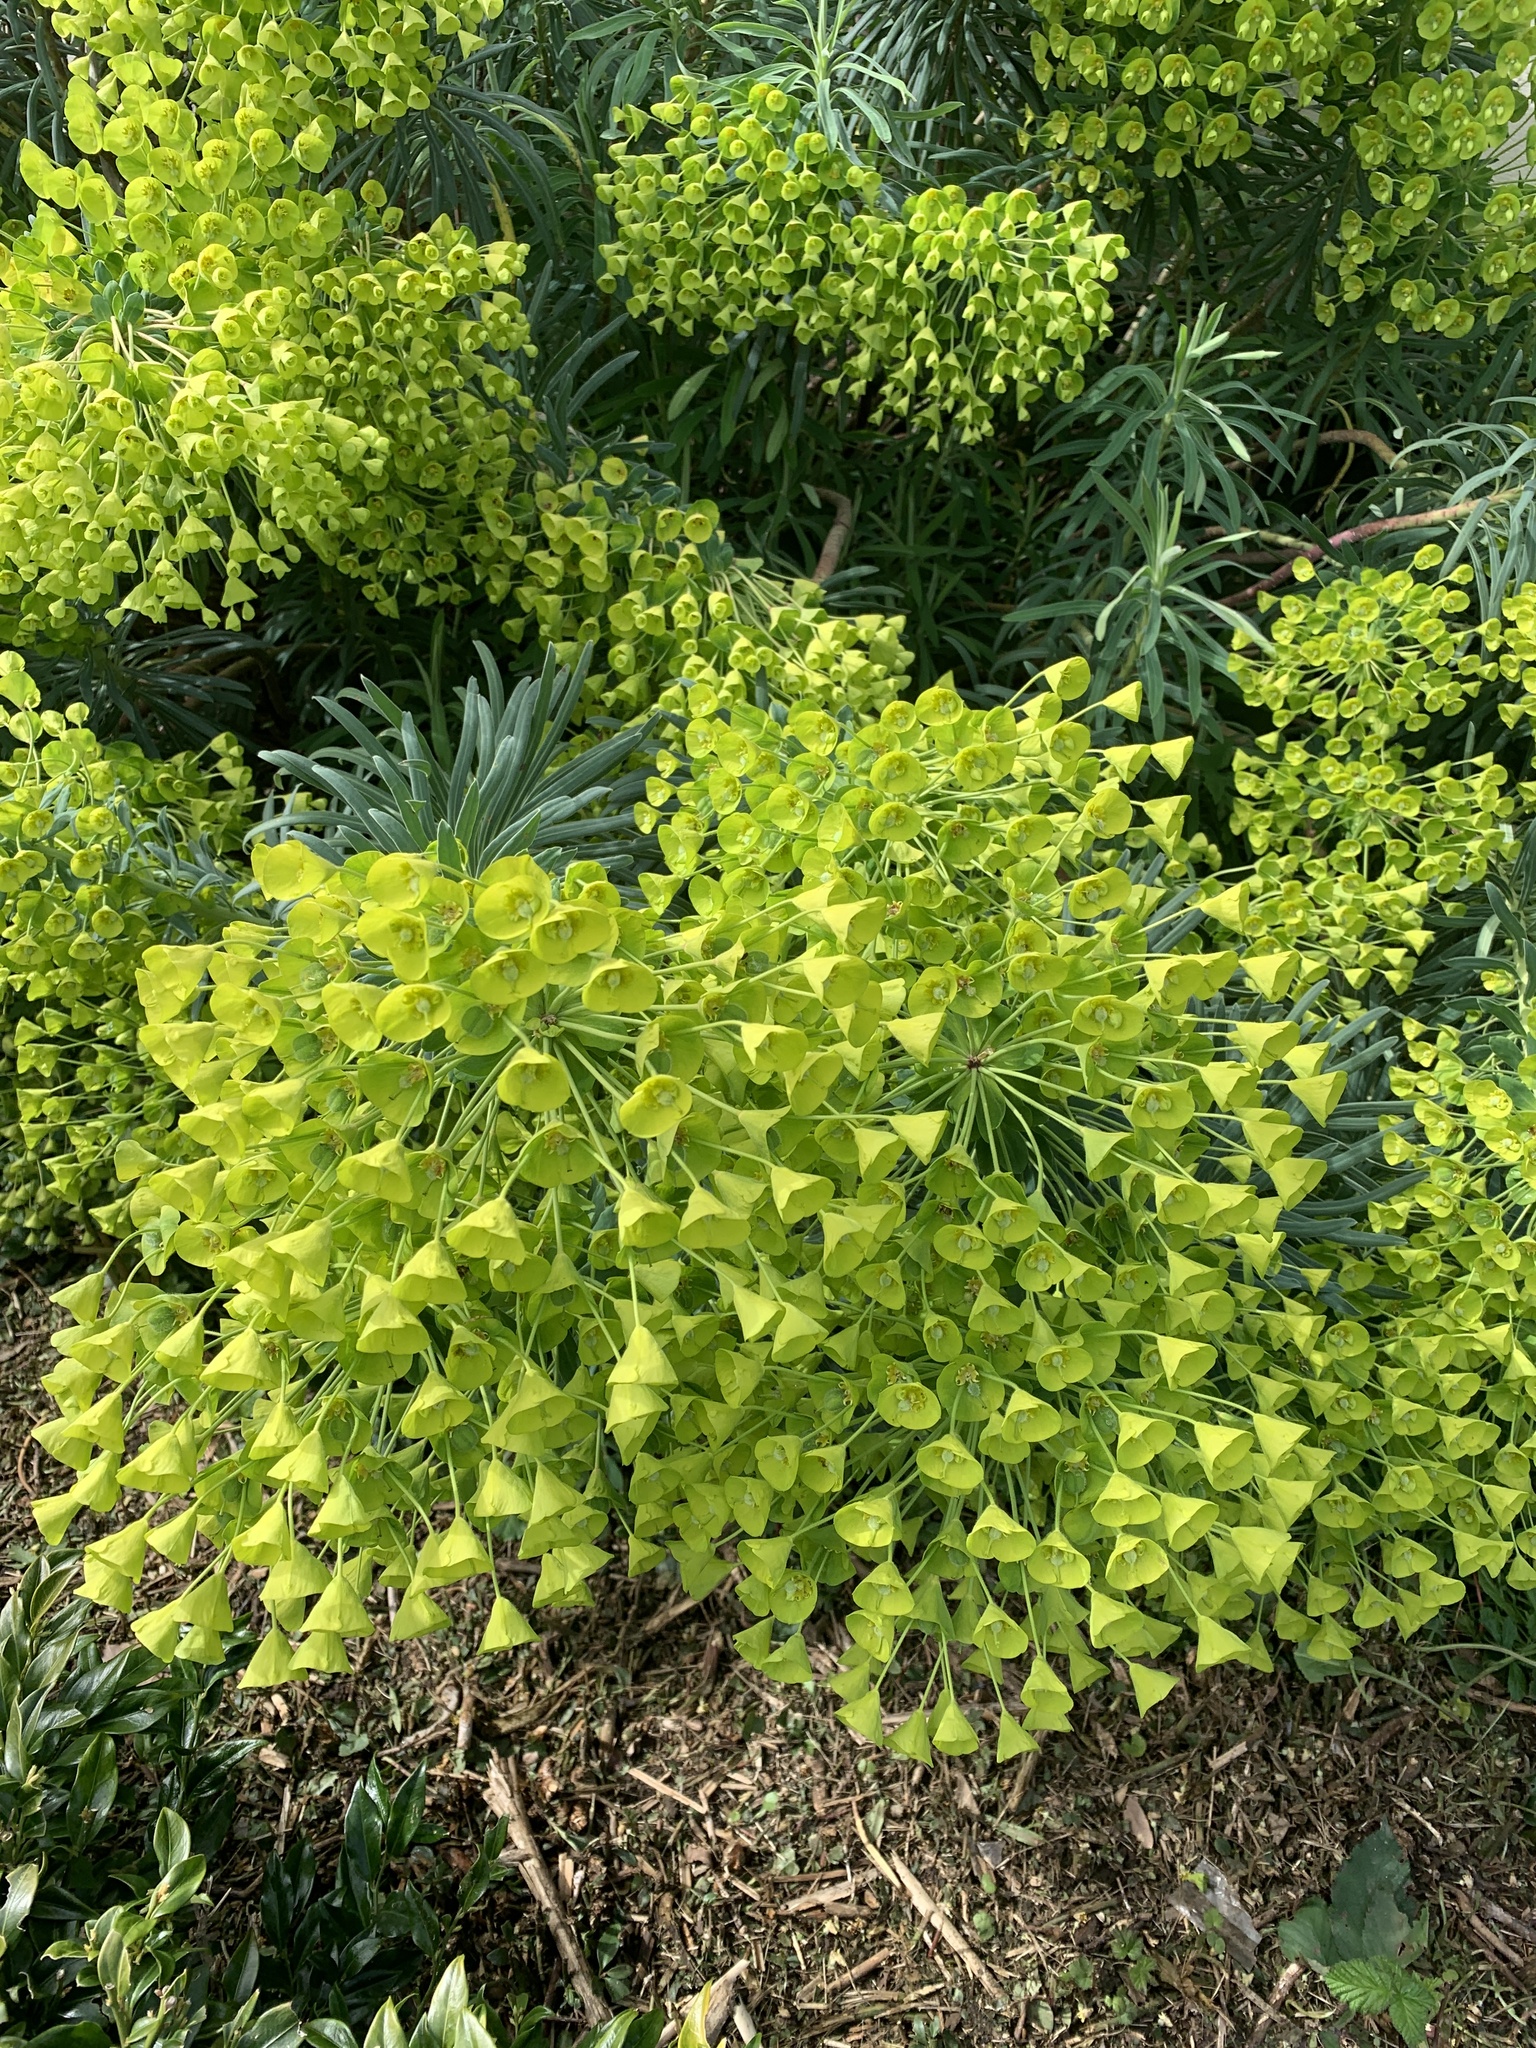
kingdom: Plantae
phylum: Tracheophyta
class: Magnoliopsida
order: Malpighiales
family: Euphorbiaceae
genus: Euphorbia
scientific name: Euphorbia characias
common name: Mediterranean spurge
